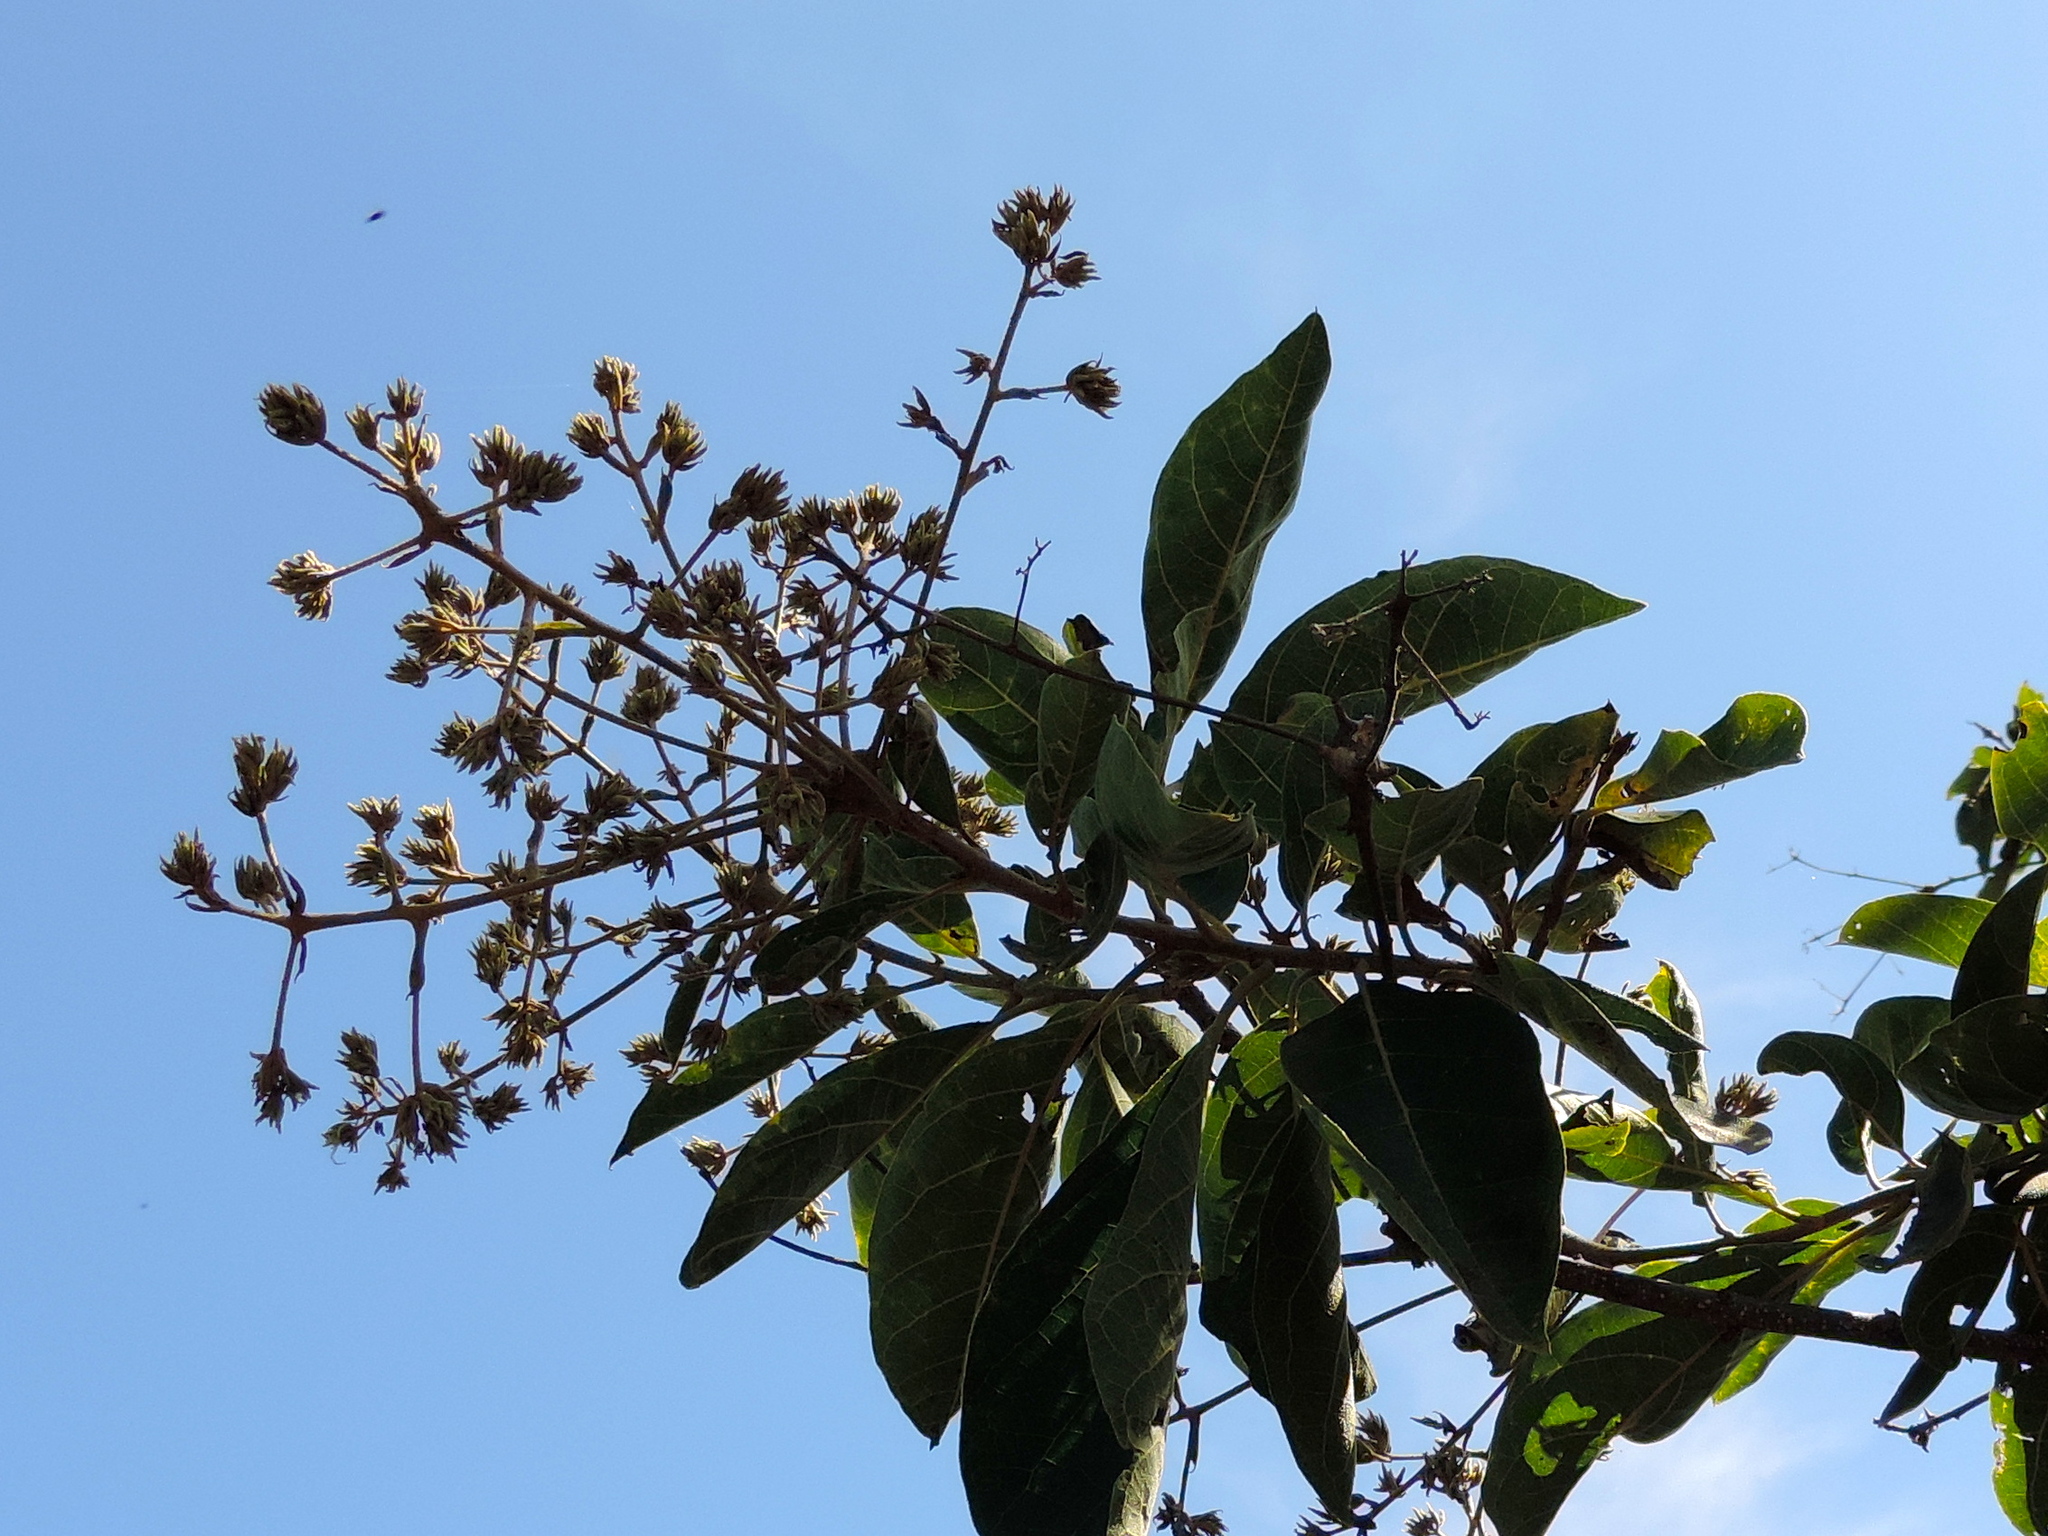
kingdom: Plantae
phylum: Tracheophyta
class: Magnoliopsida
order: Boraginales
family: Cordiaceae
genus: Cordia
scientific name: Cordia alliodora
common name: Spanish elm
